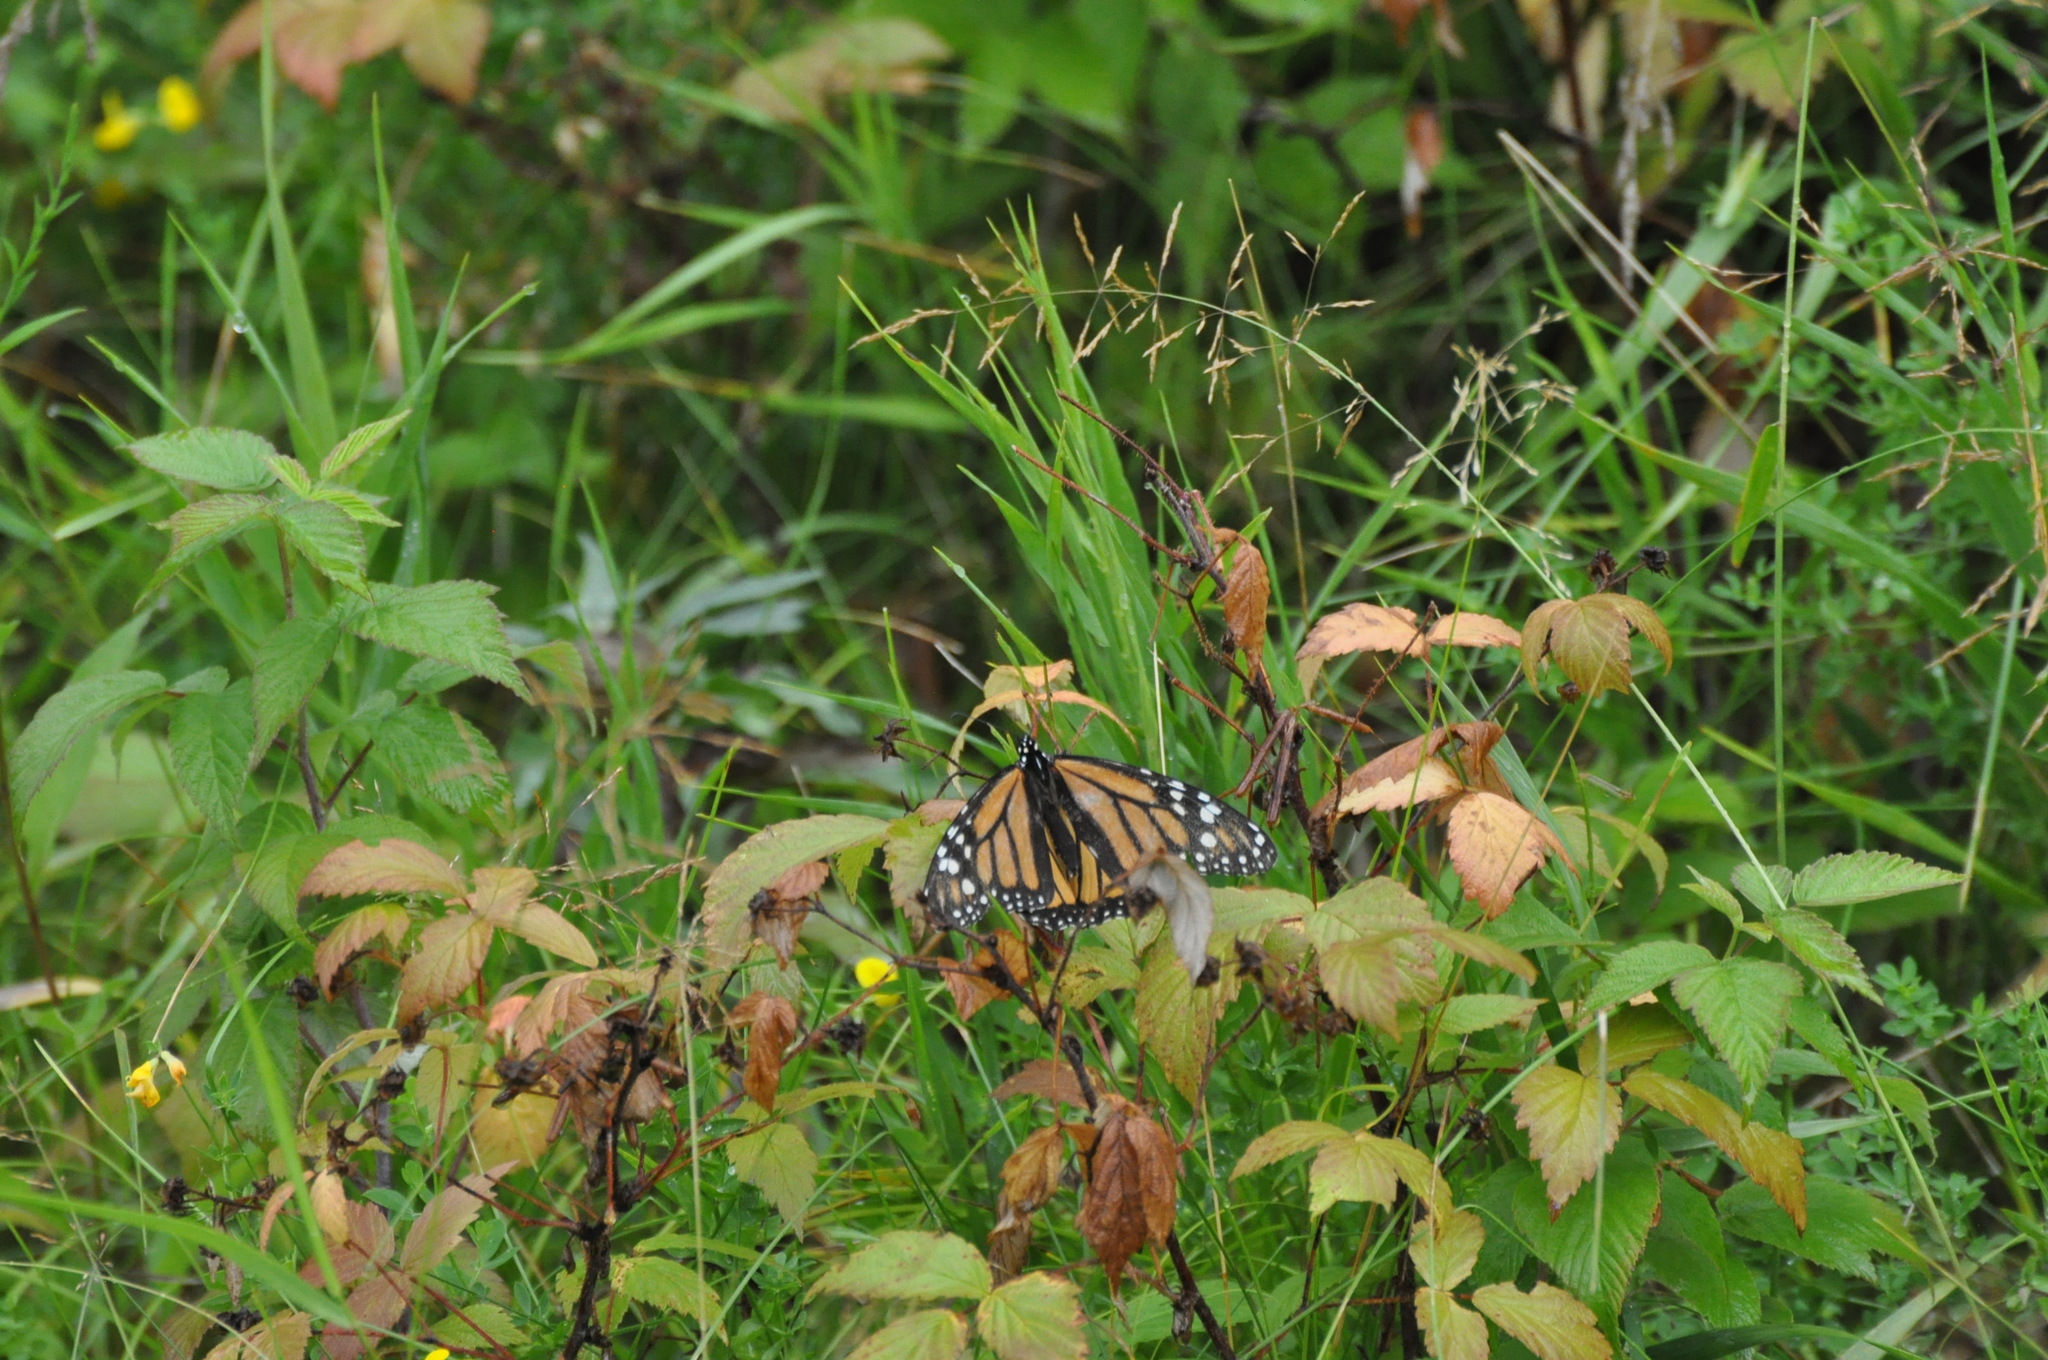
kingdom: Animalia
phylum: Arthropoda
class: Insecta
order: Lepidoptera
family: Nymphalidae
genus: Danaus
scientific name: Danaus plexippus
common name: Monarch
